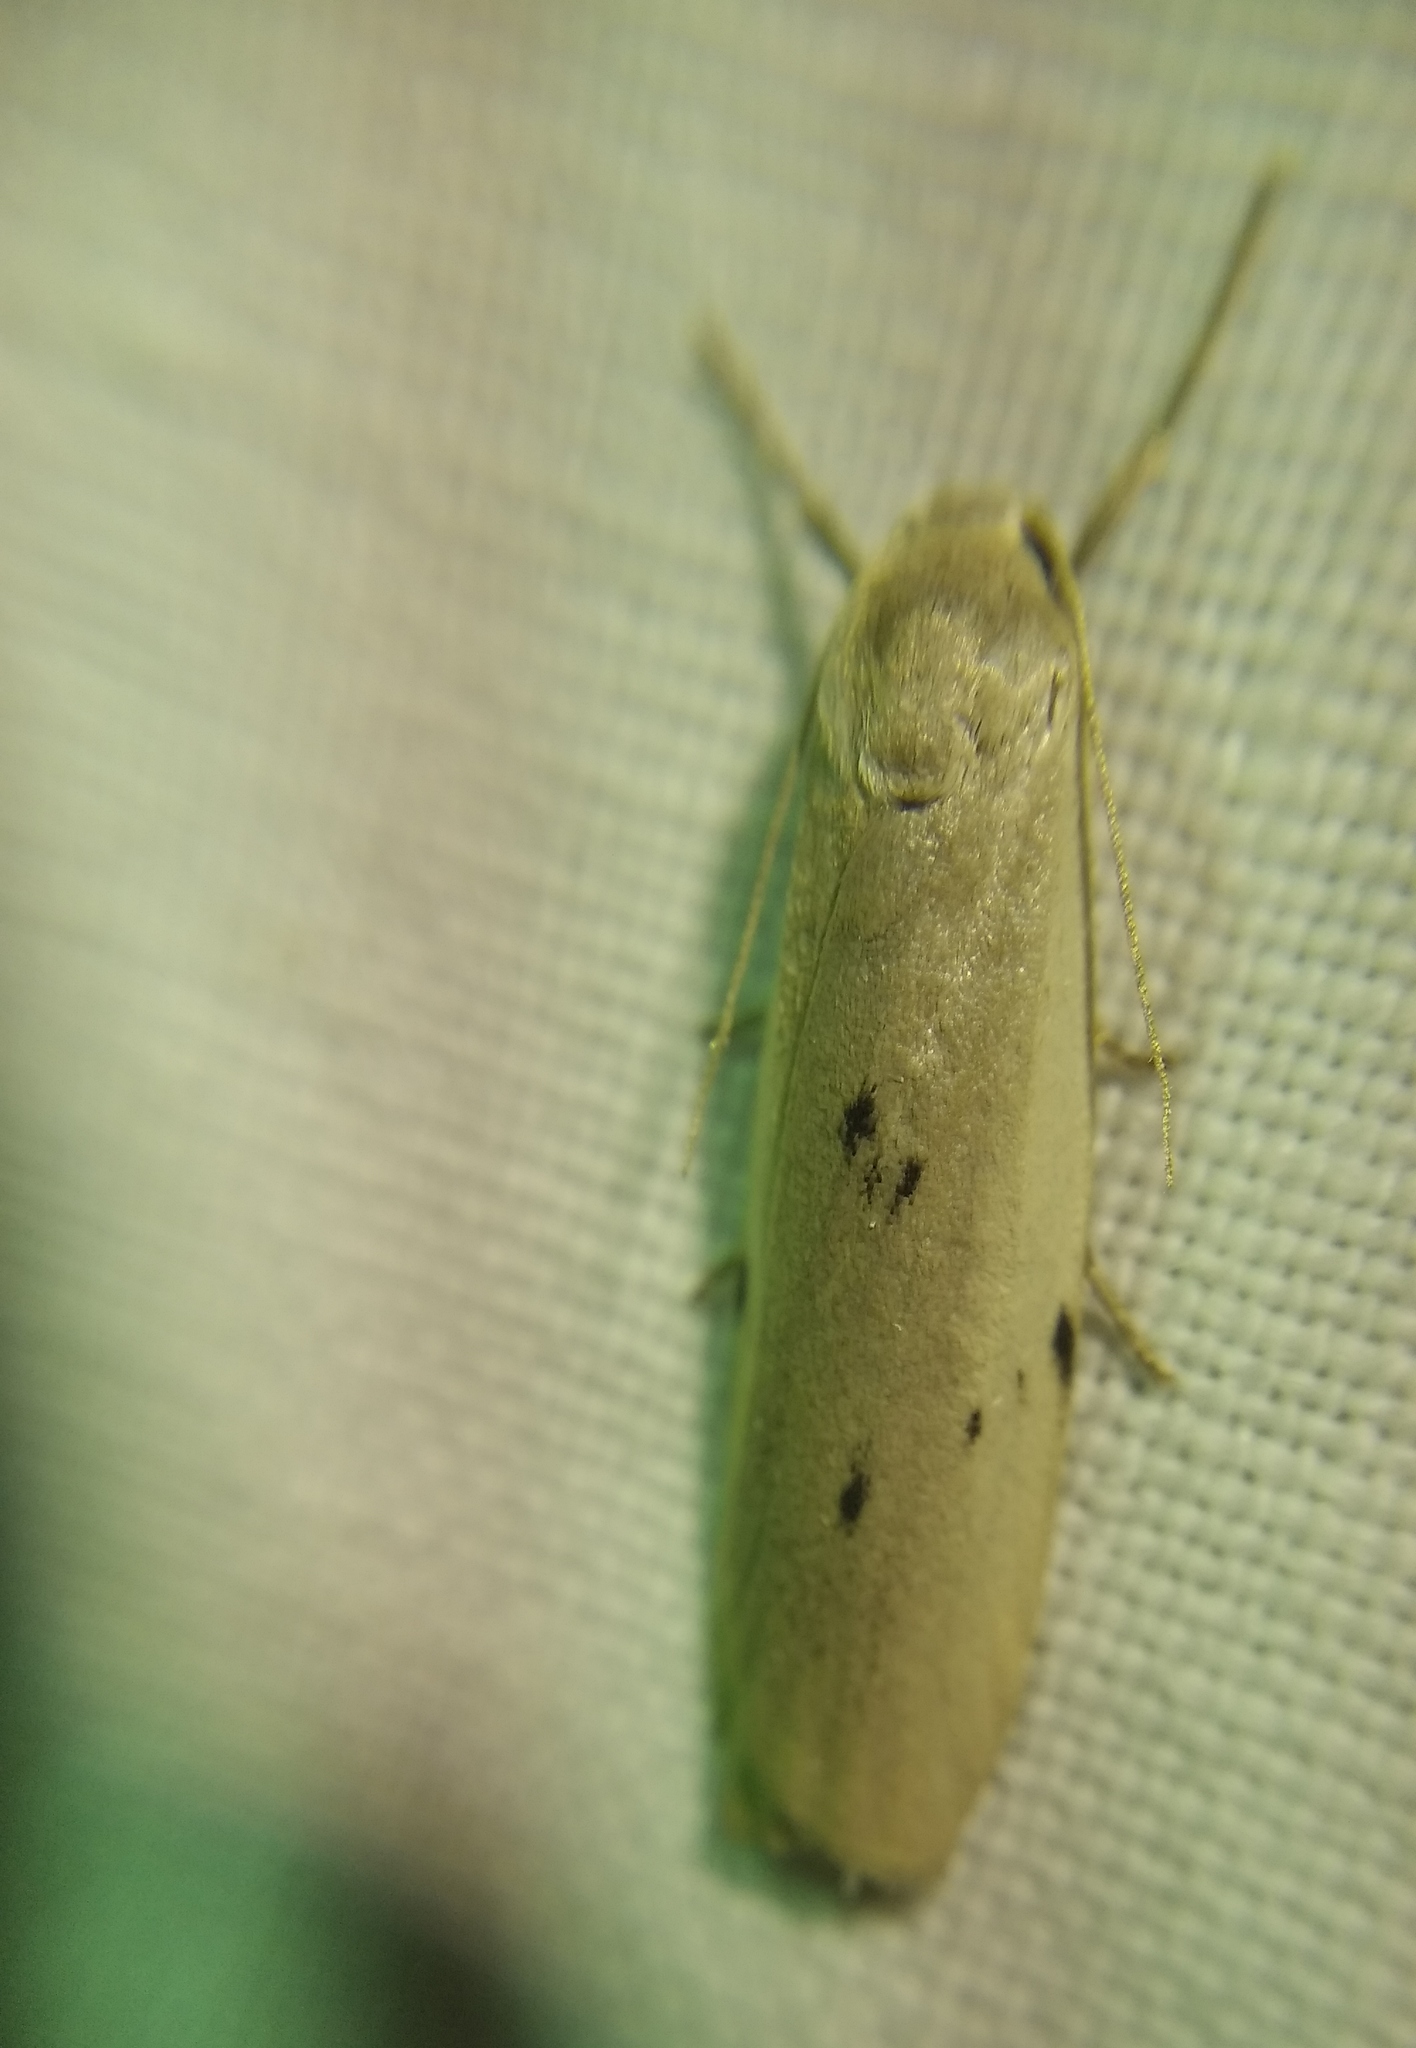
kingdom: Animalia
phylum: Arthropoda
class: Insecta
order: Lepidoptera
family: Erebidae
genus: Pelosia
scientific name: Pelosia muscerda
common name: Dotted footman
